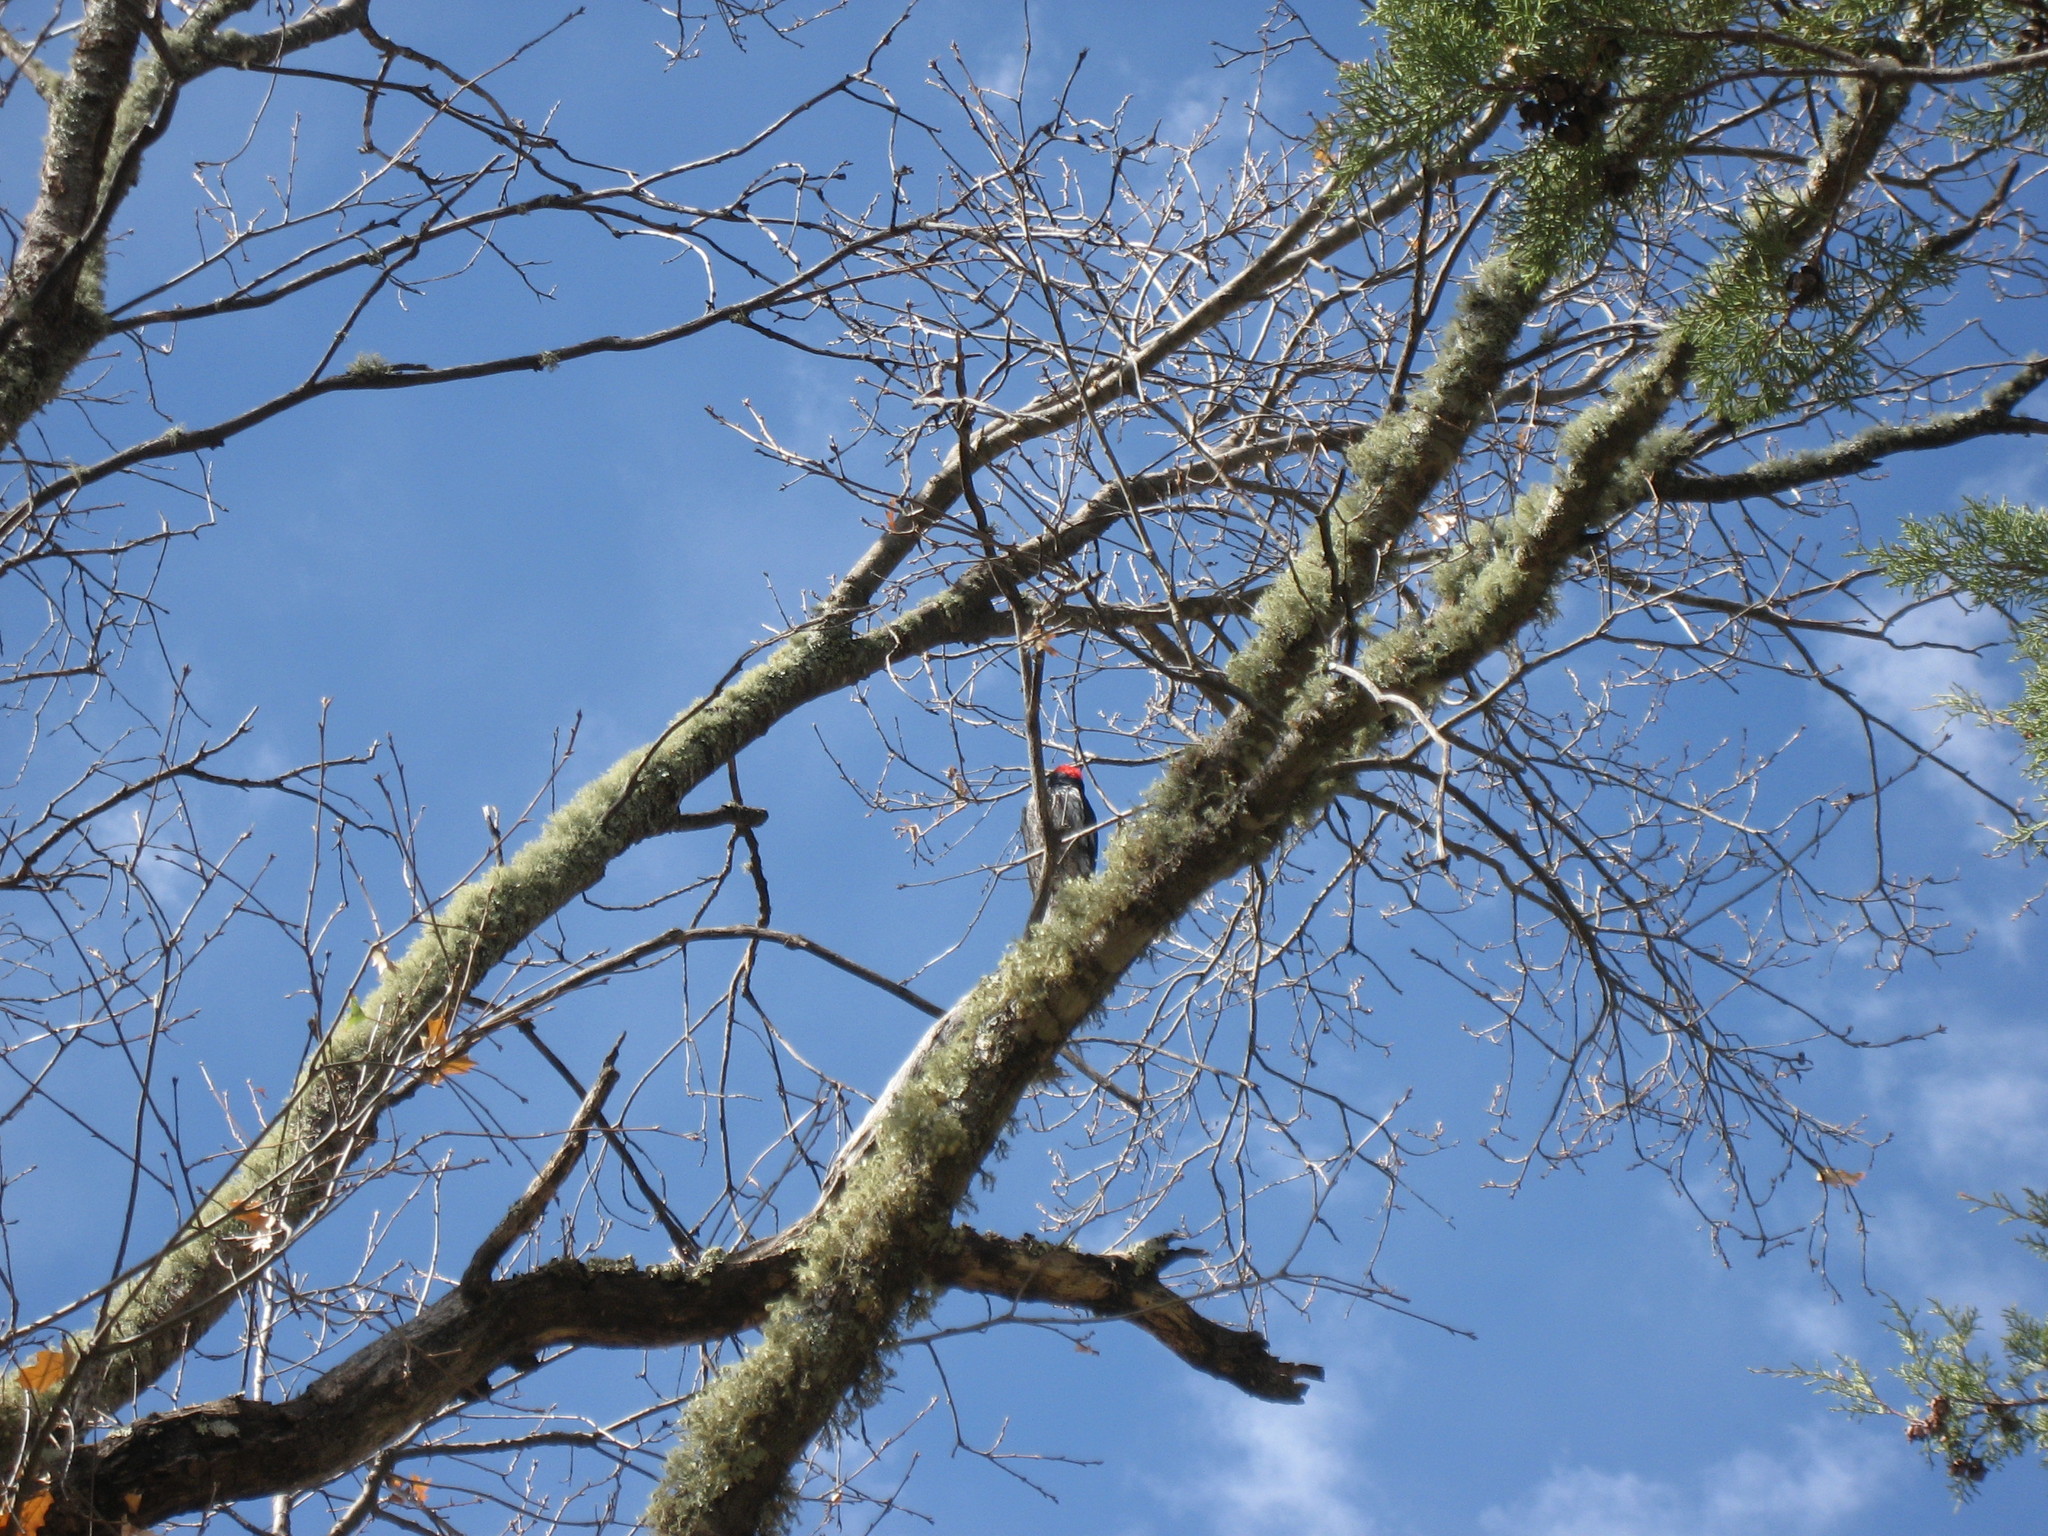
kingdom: Animalia
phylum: Chordata
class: Aves
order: Piciformes
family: Picidae
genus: Melanerpes
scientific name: Melanerpes formicivorus
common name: Acorn woodpecker
